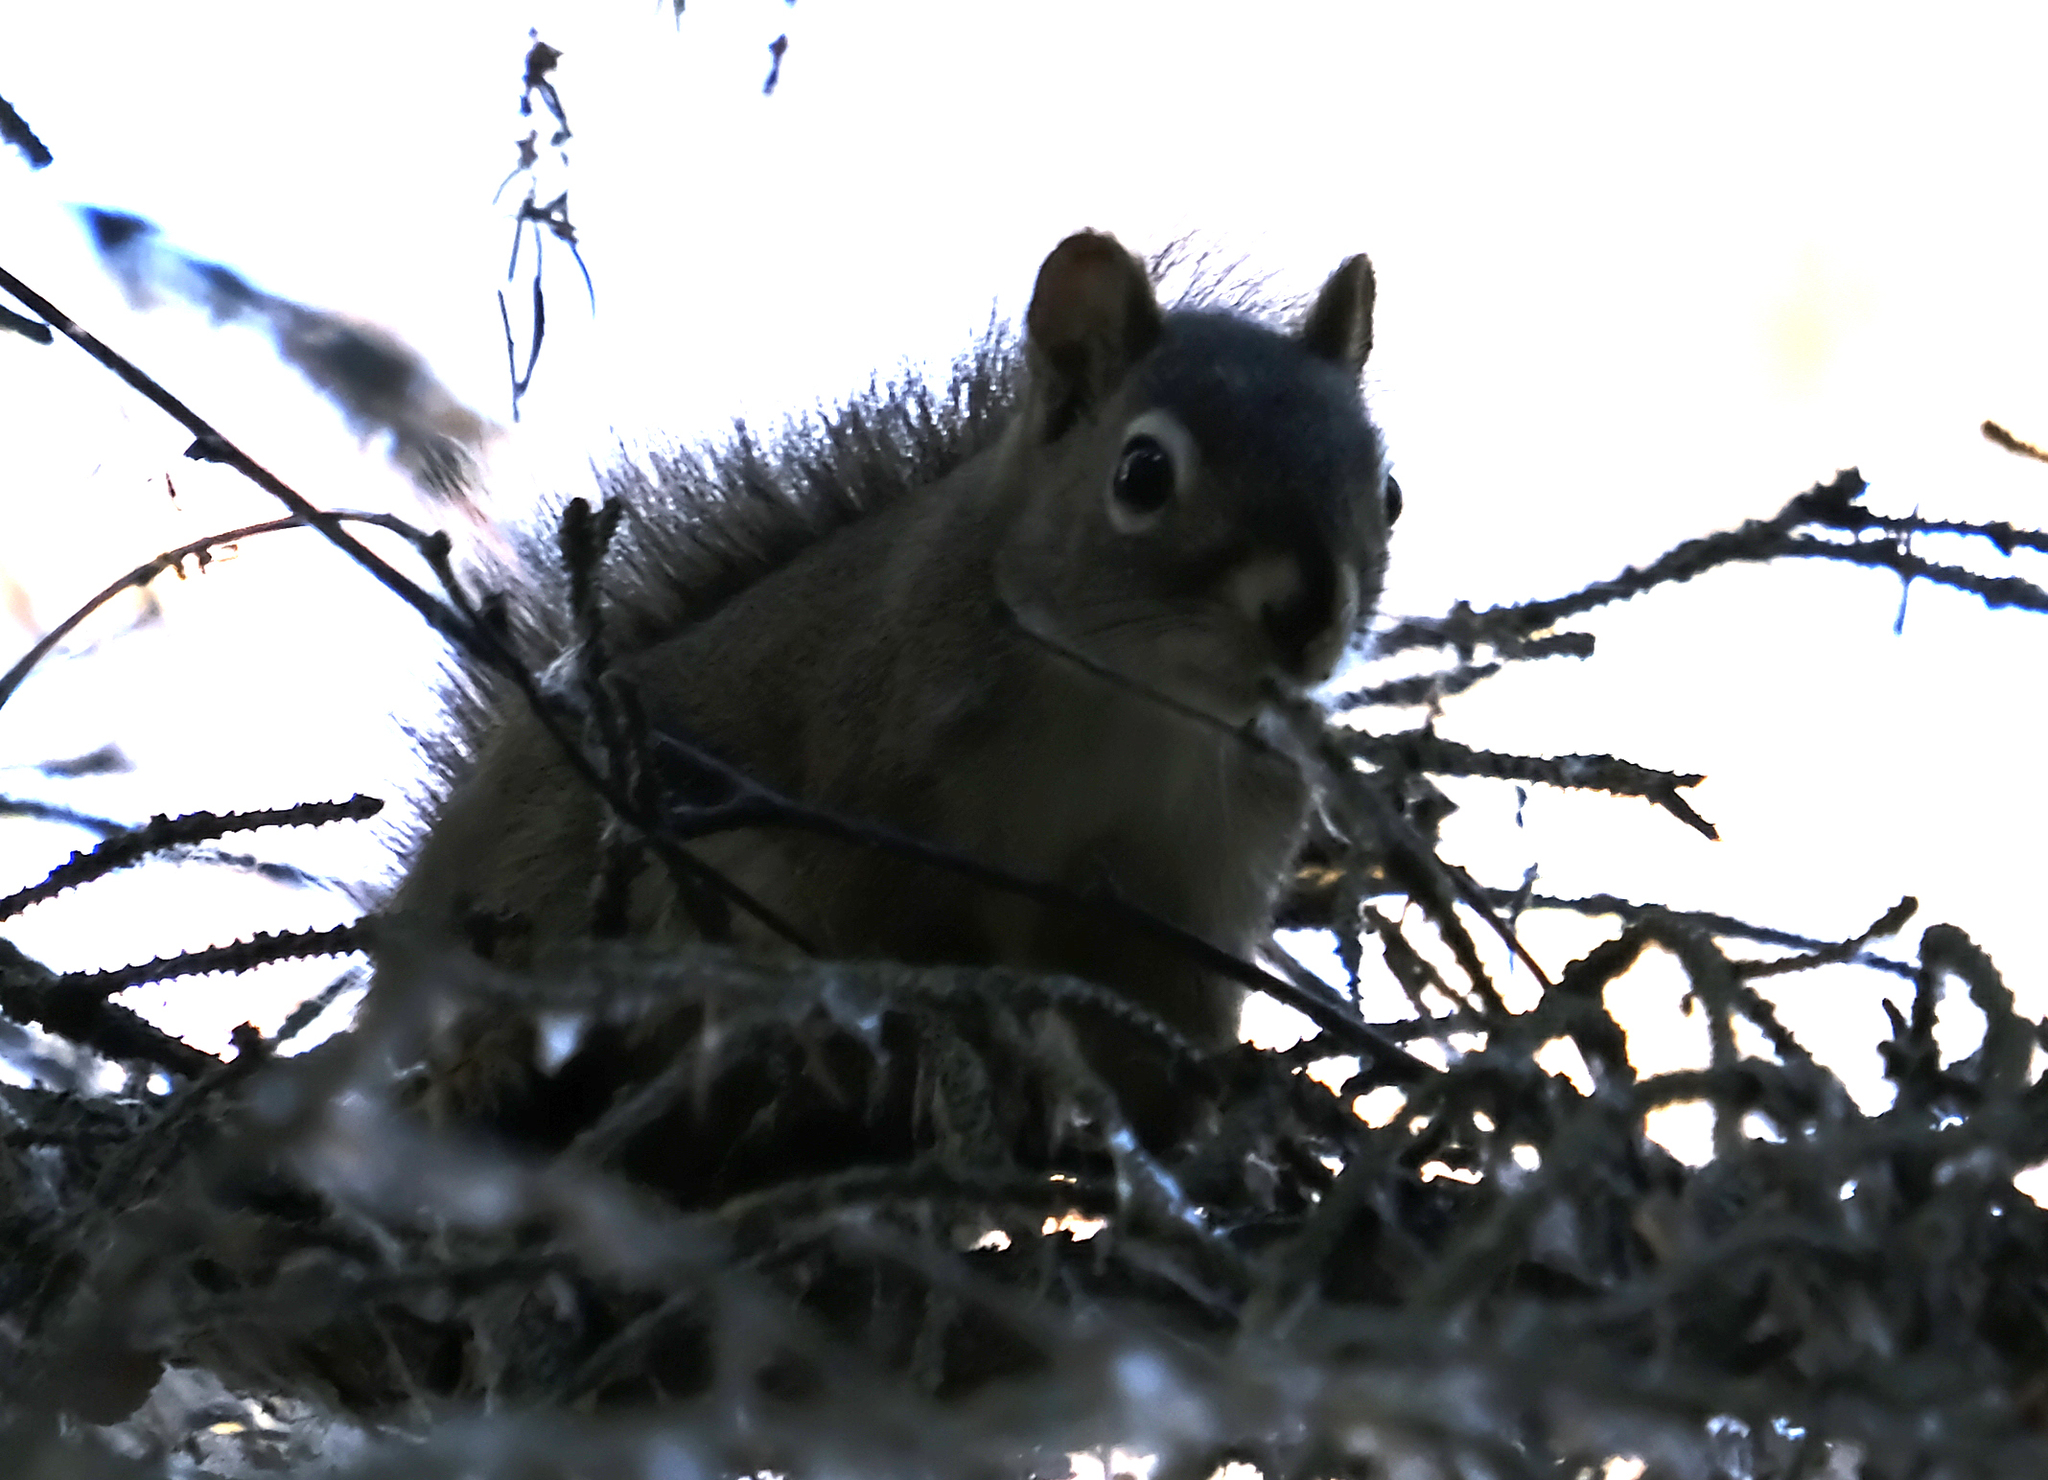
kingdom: Animalia
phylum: Chordata
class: Mammalia
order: Rodentia
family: Sciuridae
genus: Tamiasciurus
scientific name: Tamiasciurus hudsonicus
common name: Red squirrel
